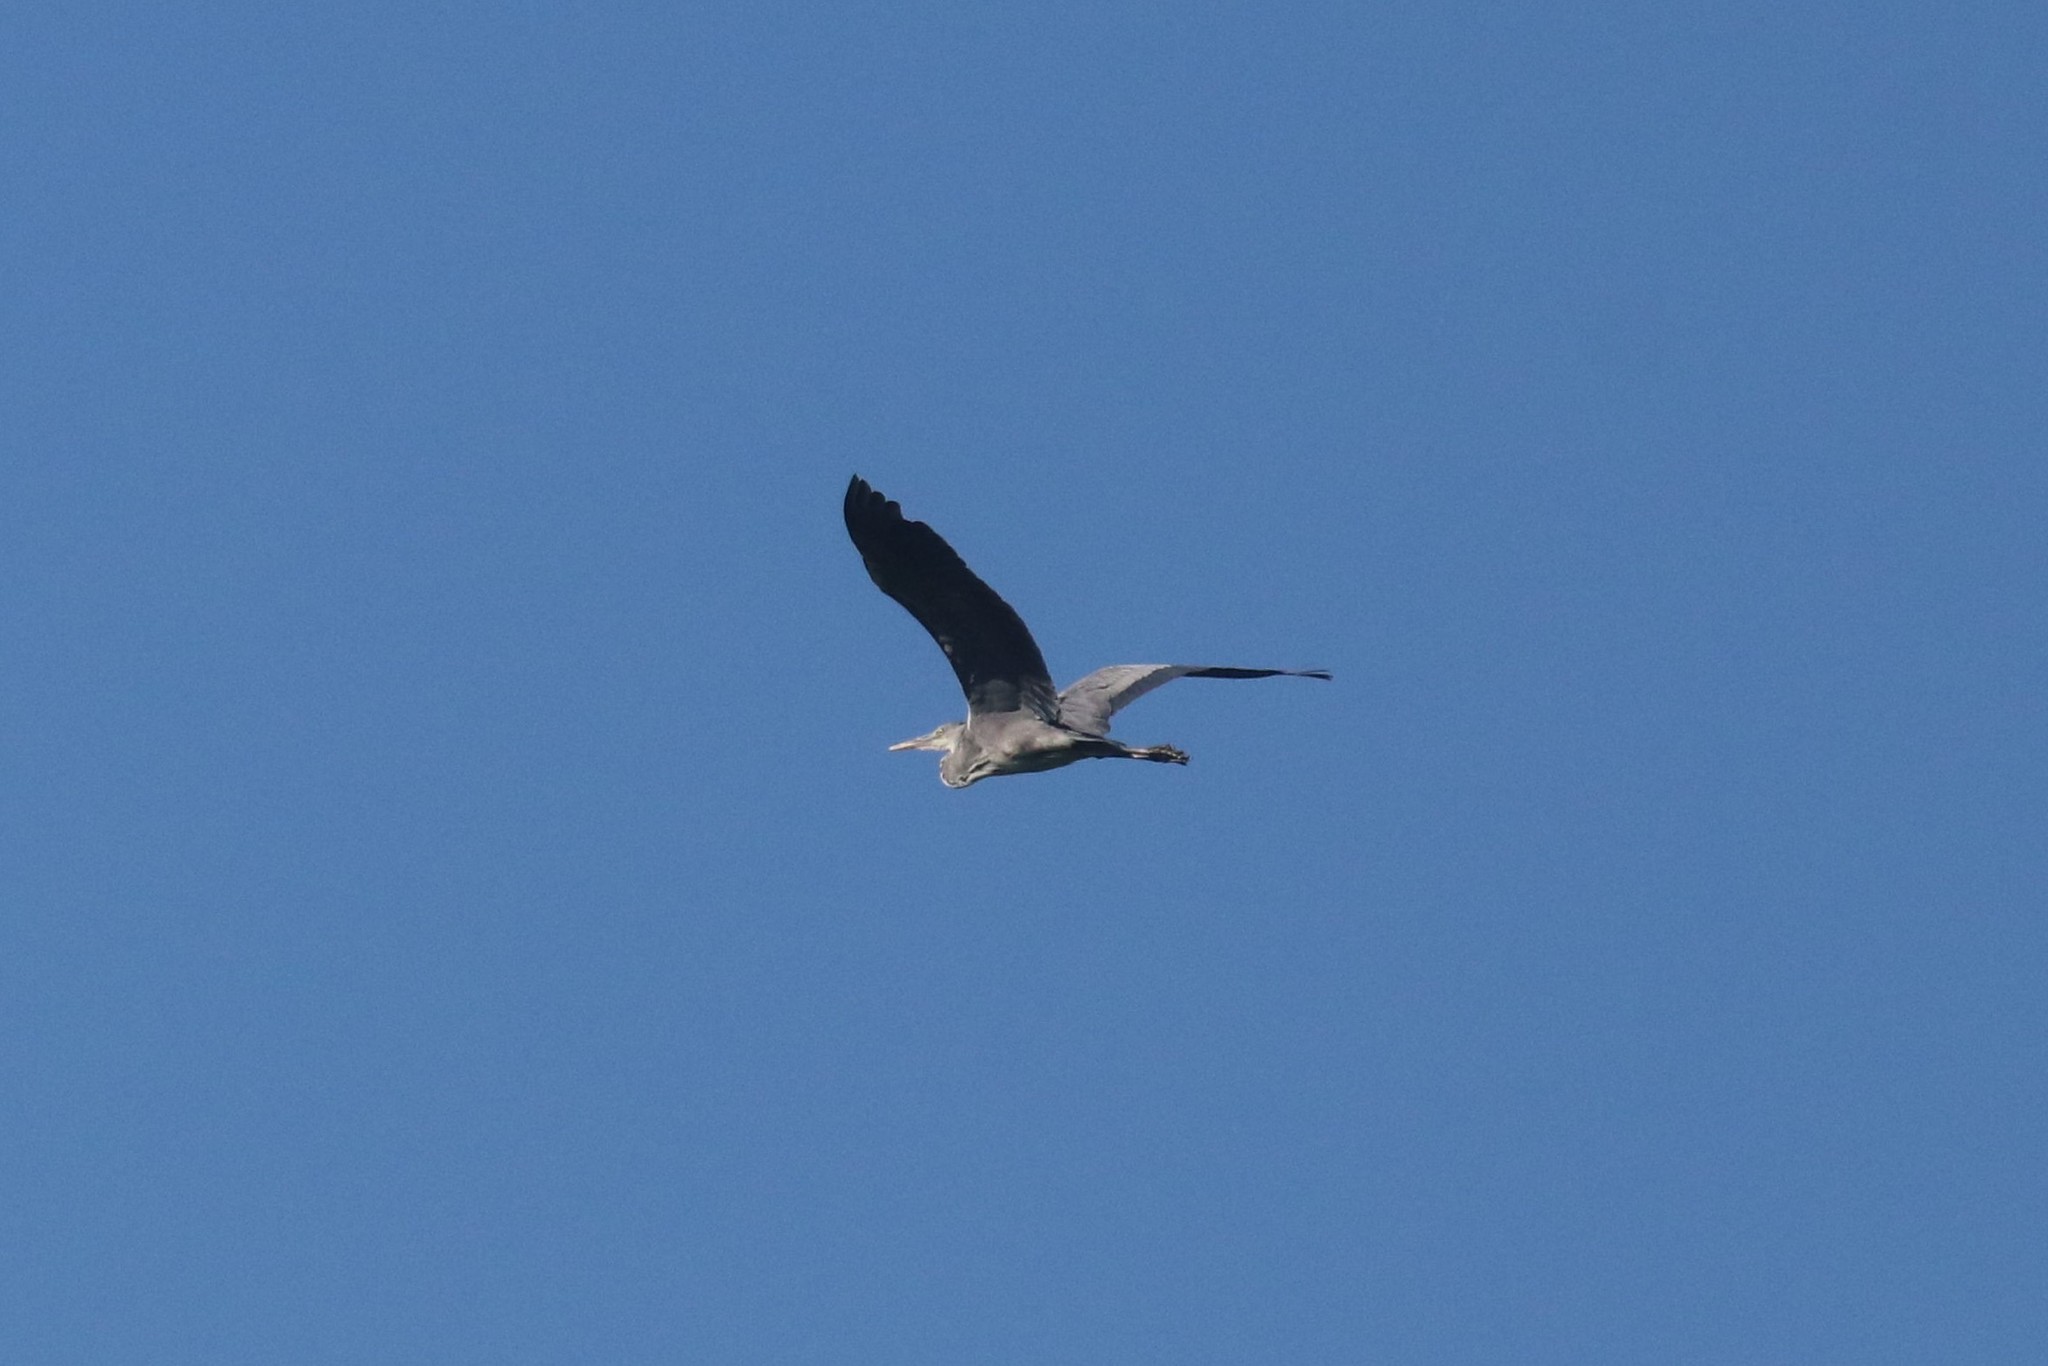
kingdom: Animalia
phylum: Chordata
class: Aves
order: Pelecaniformes
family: Ardeidae
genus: Ardea
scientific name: Ardea cinerea
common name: Grey heron
